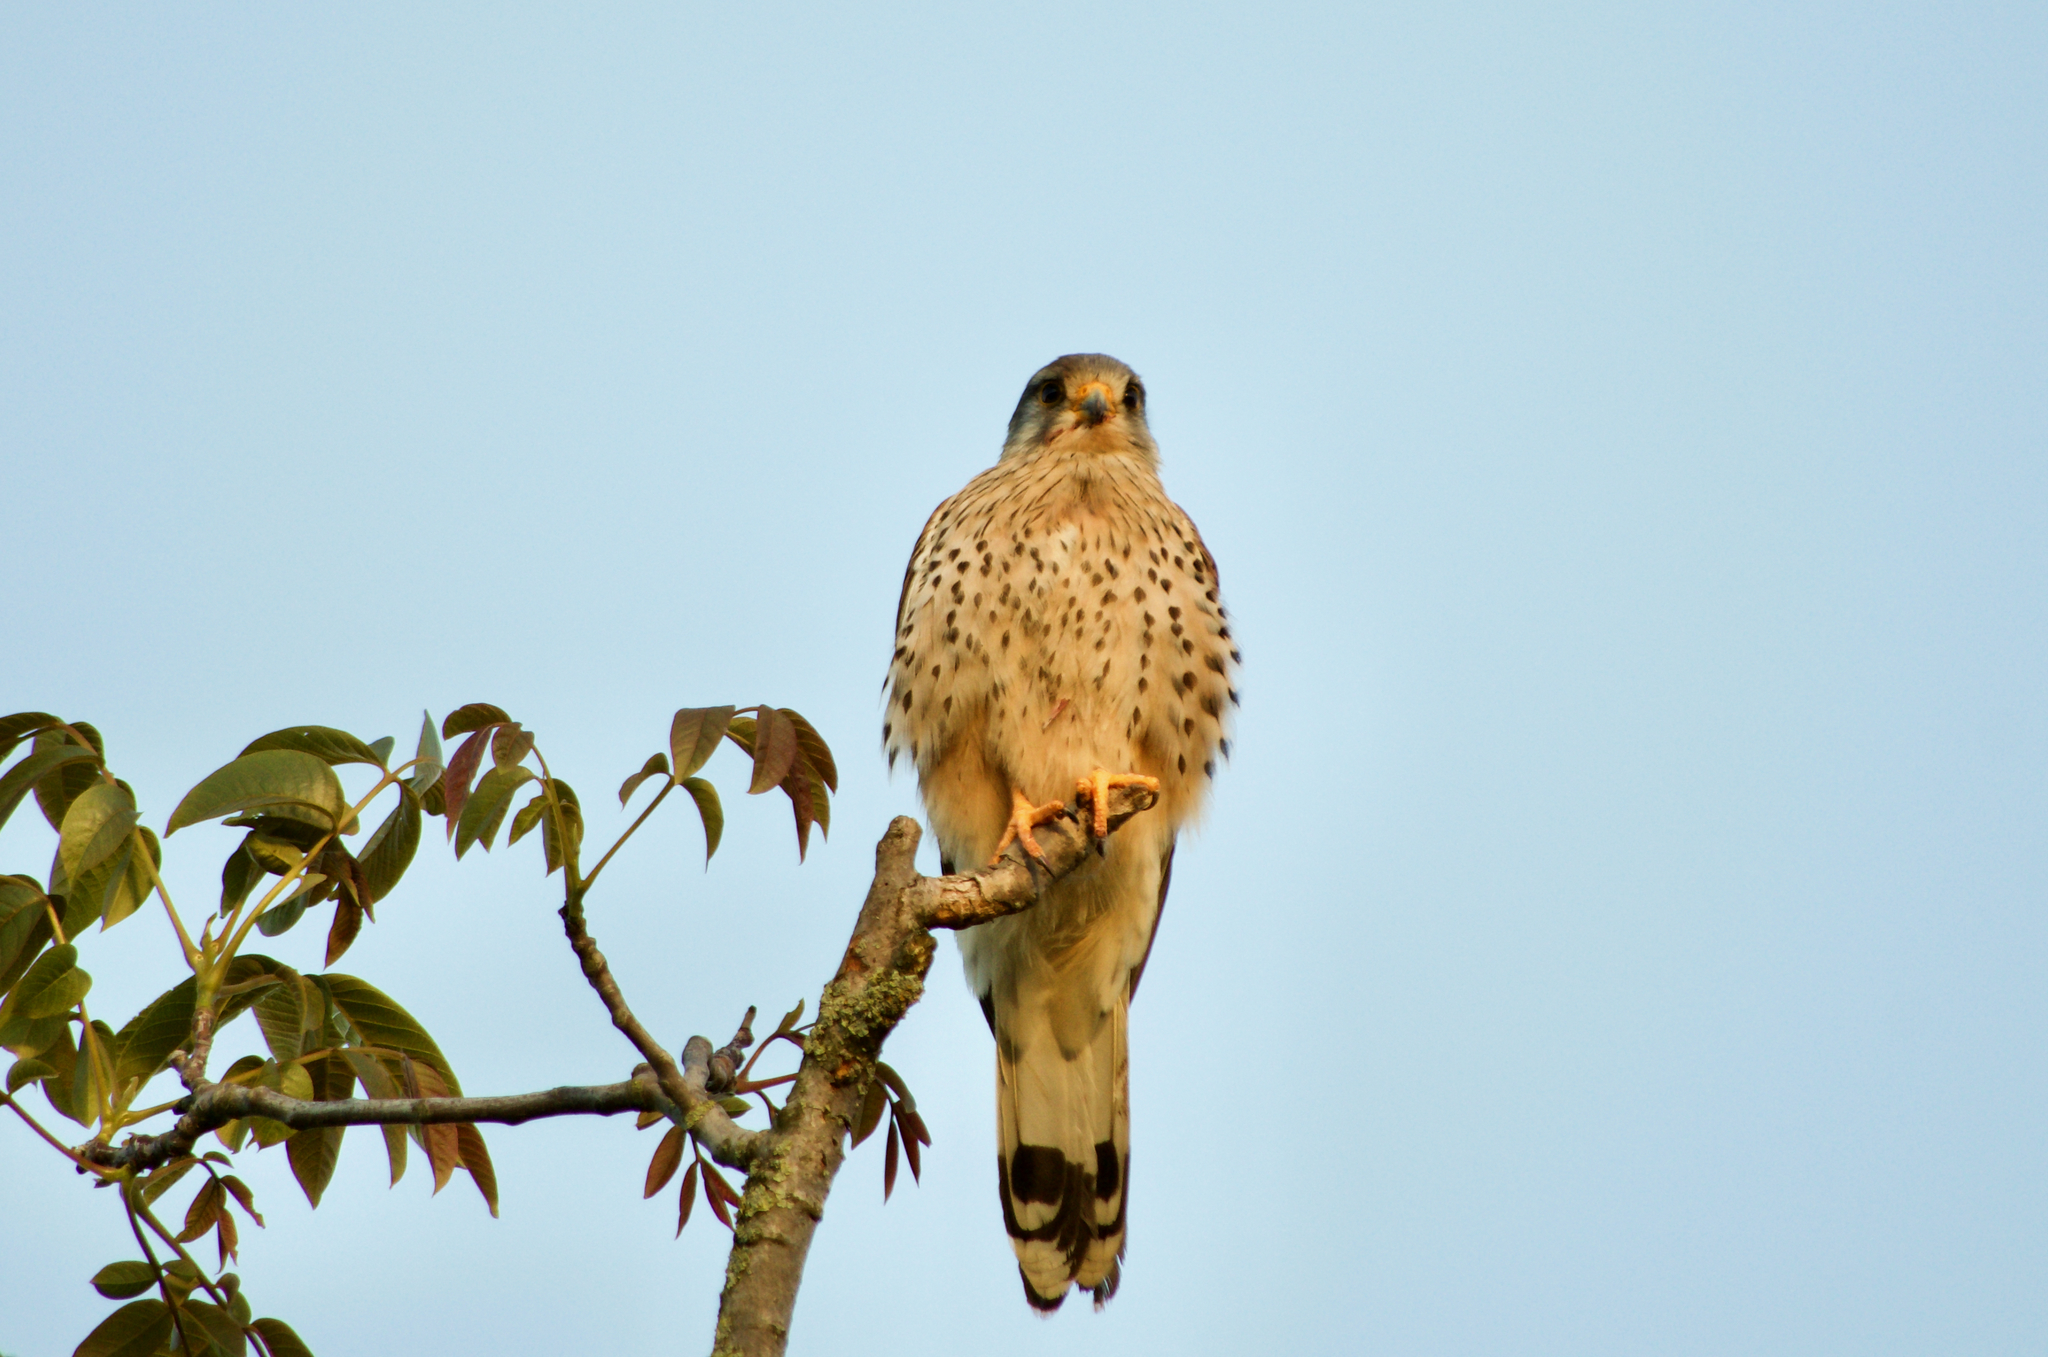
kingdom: Animalia
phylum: Chordata
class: Aves
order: Falconiformes
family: Falconidae
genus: Falco
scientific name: Falco tinnunculus
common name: Common kestrel
